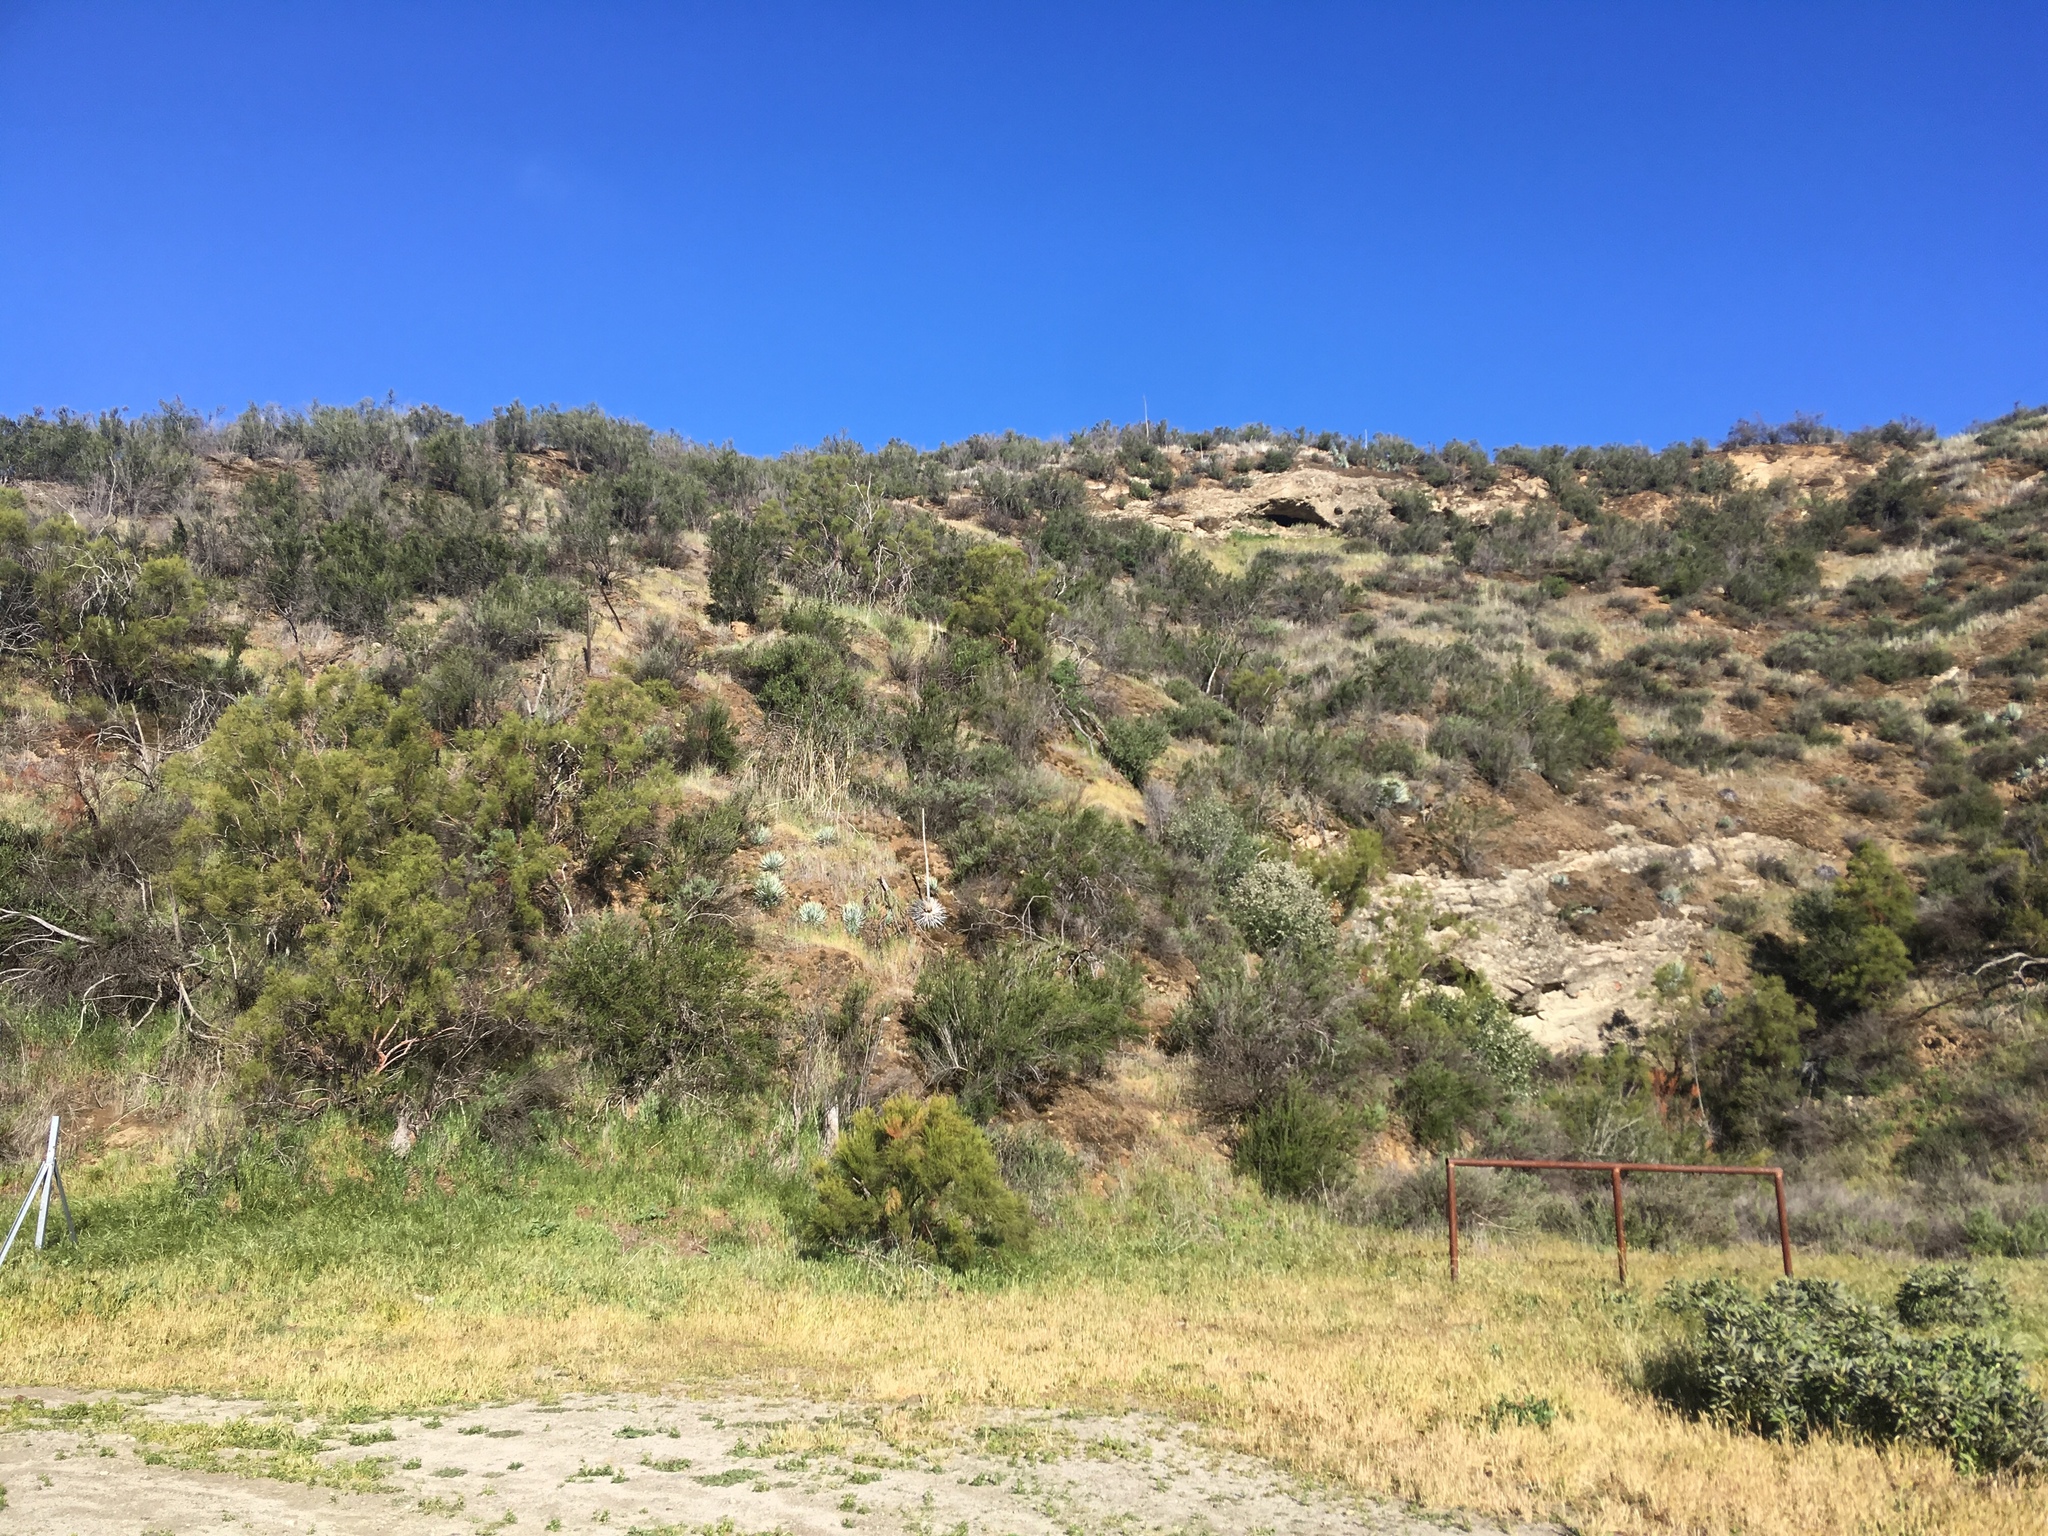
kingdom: Plantae
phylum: Tracheophyta
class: Magnoliopsida
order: Rosales
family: Rosaceae
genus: Adenostoma
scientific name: Adenostoma sparsifolium
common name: Red shank
